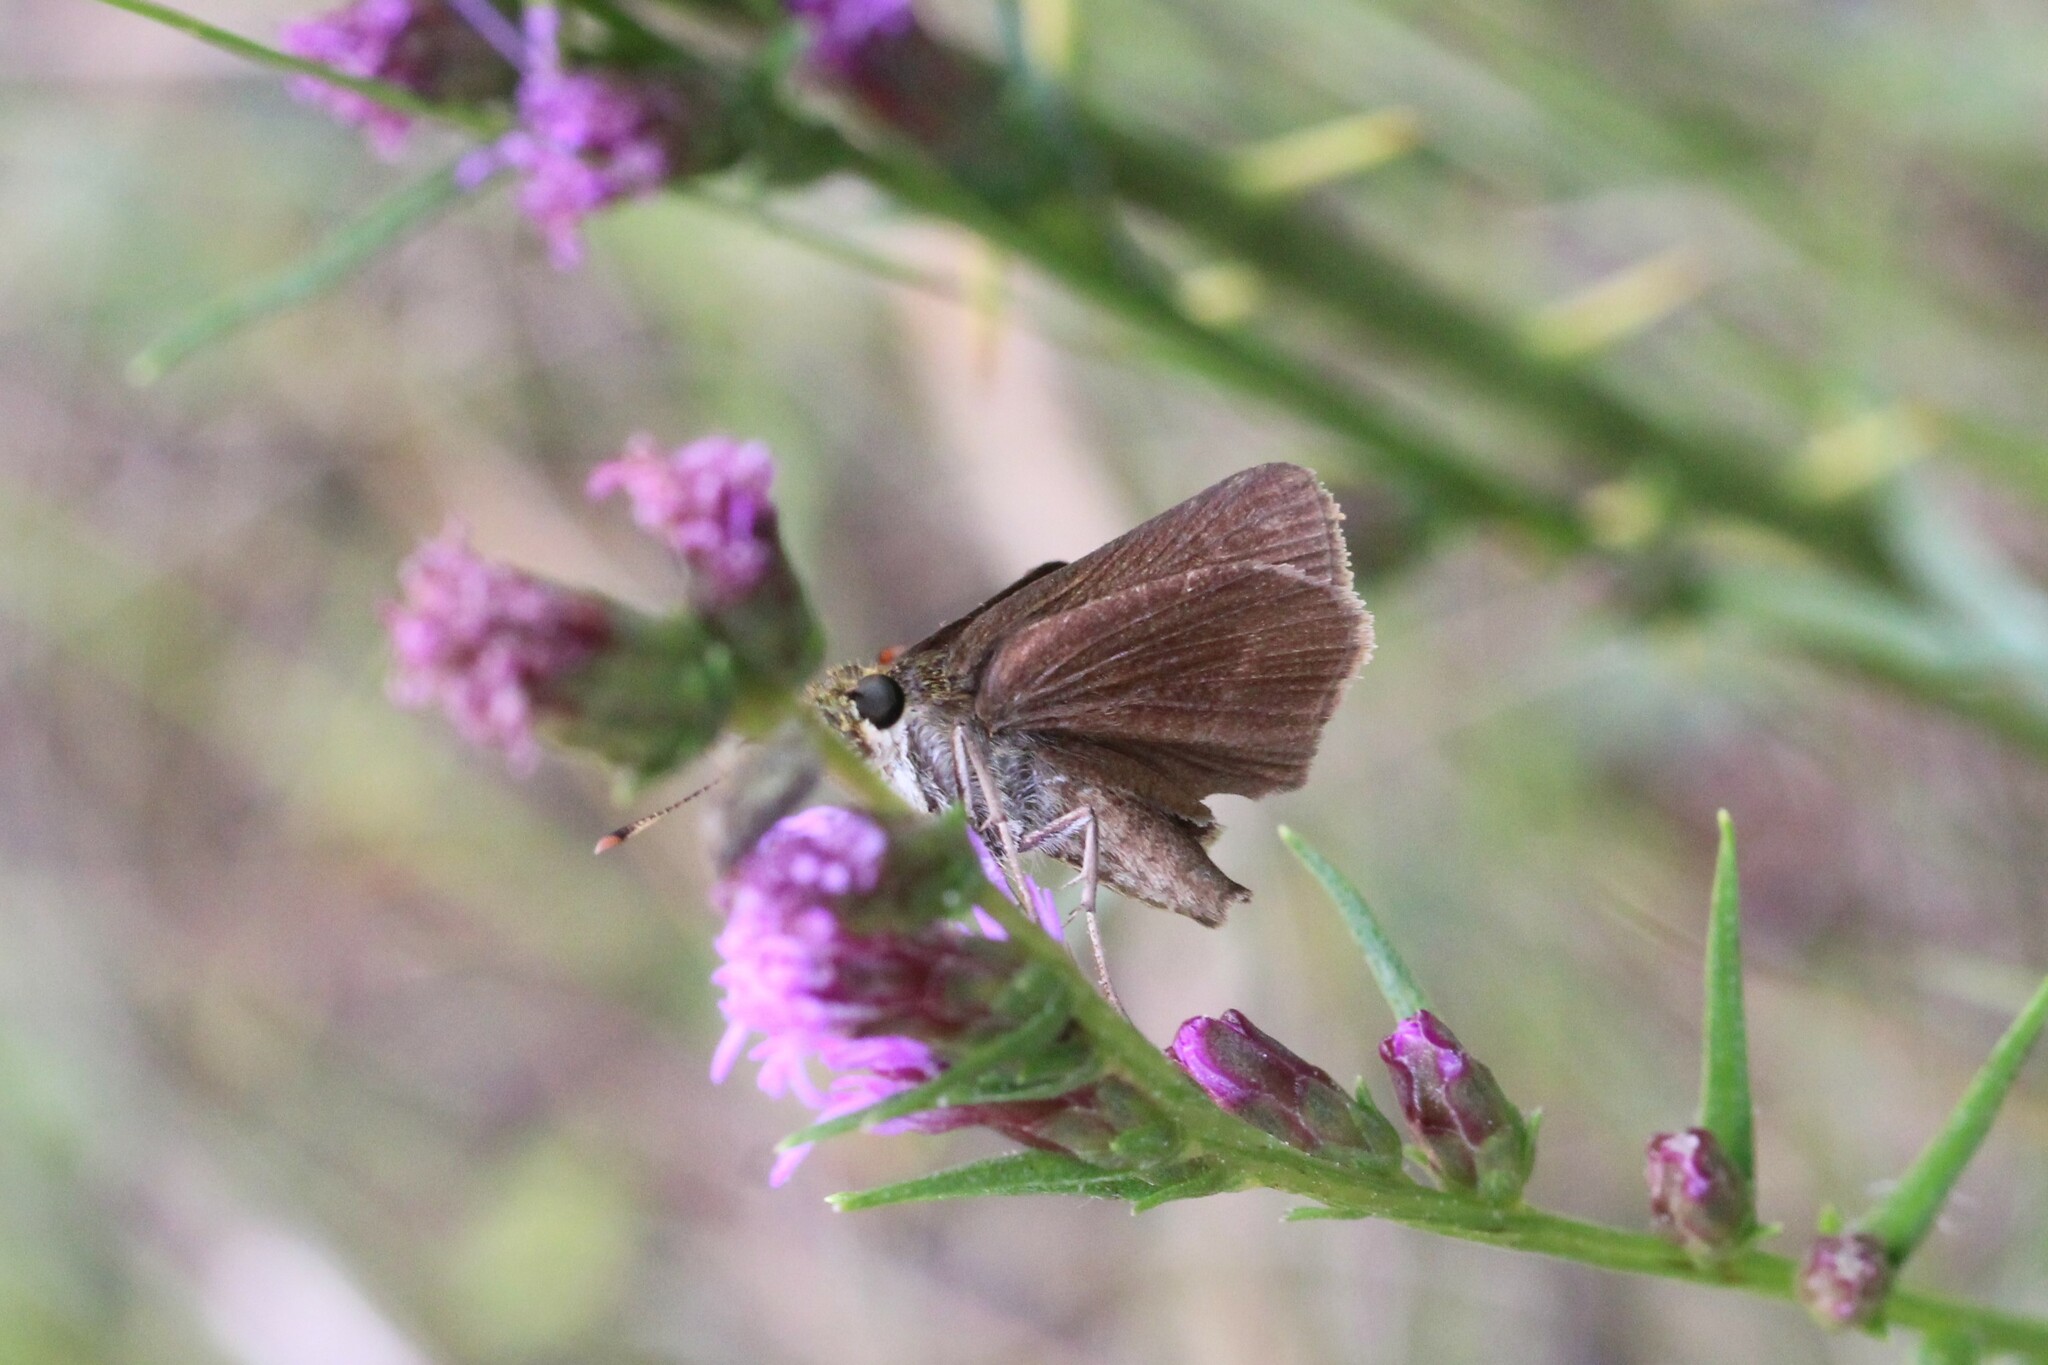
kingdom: Animalia
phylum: Arthropoda
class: Insecta
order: Lepidoptera
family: Hesperiidae
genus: Euphyes
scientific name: Euphyes vestris
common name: Dun skipper
